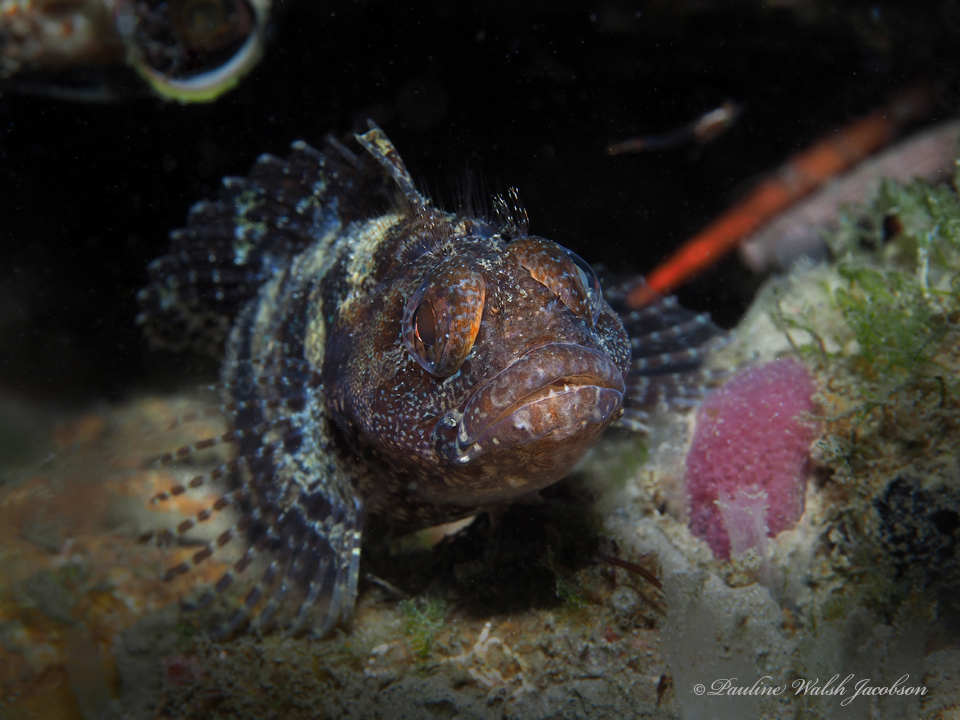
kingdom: Animalia
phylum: Chordata
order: Perciformes
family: Labrisomidae
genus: Gobioclinus
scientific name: Gobioclinus kalisherae
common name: Downy blenny
